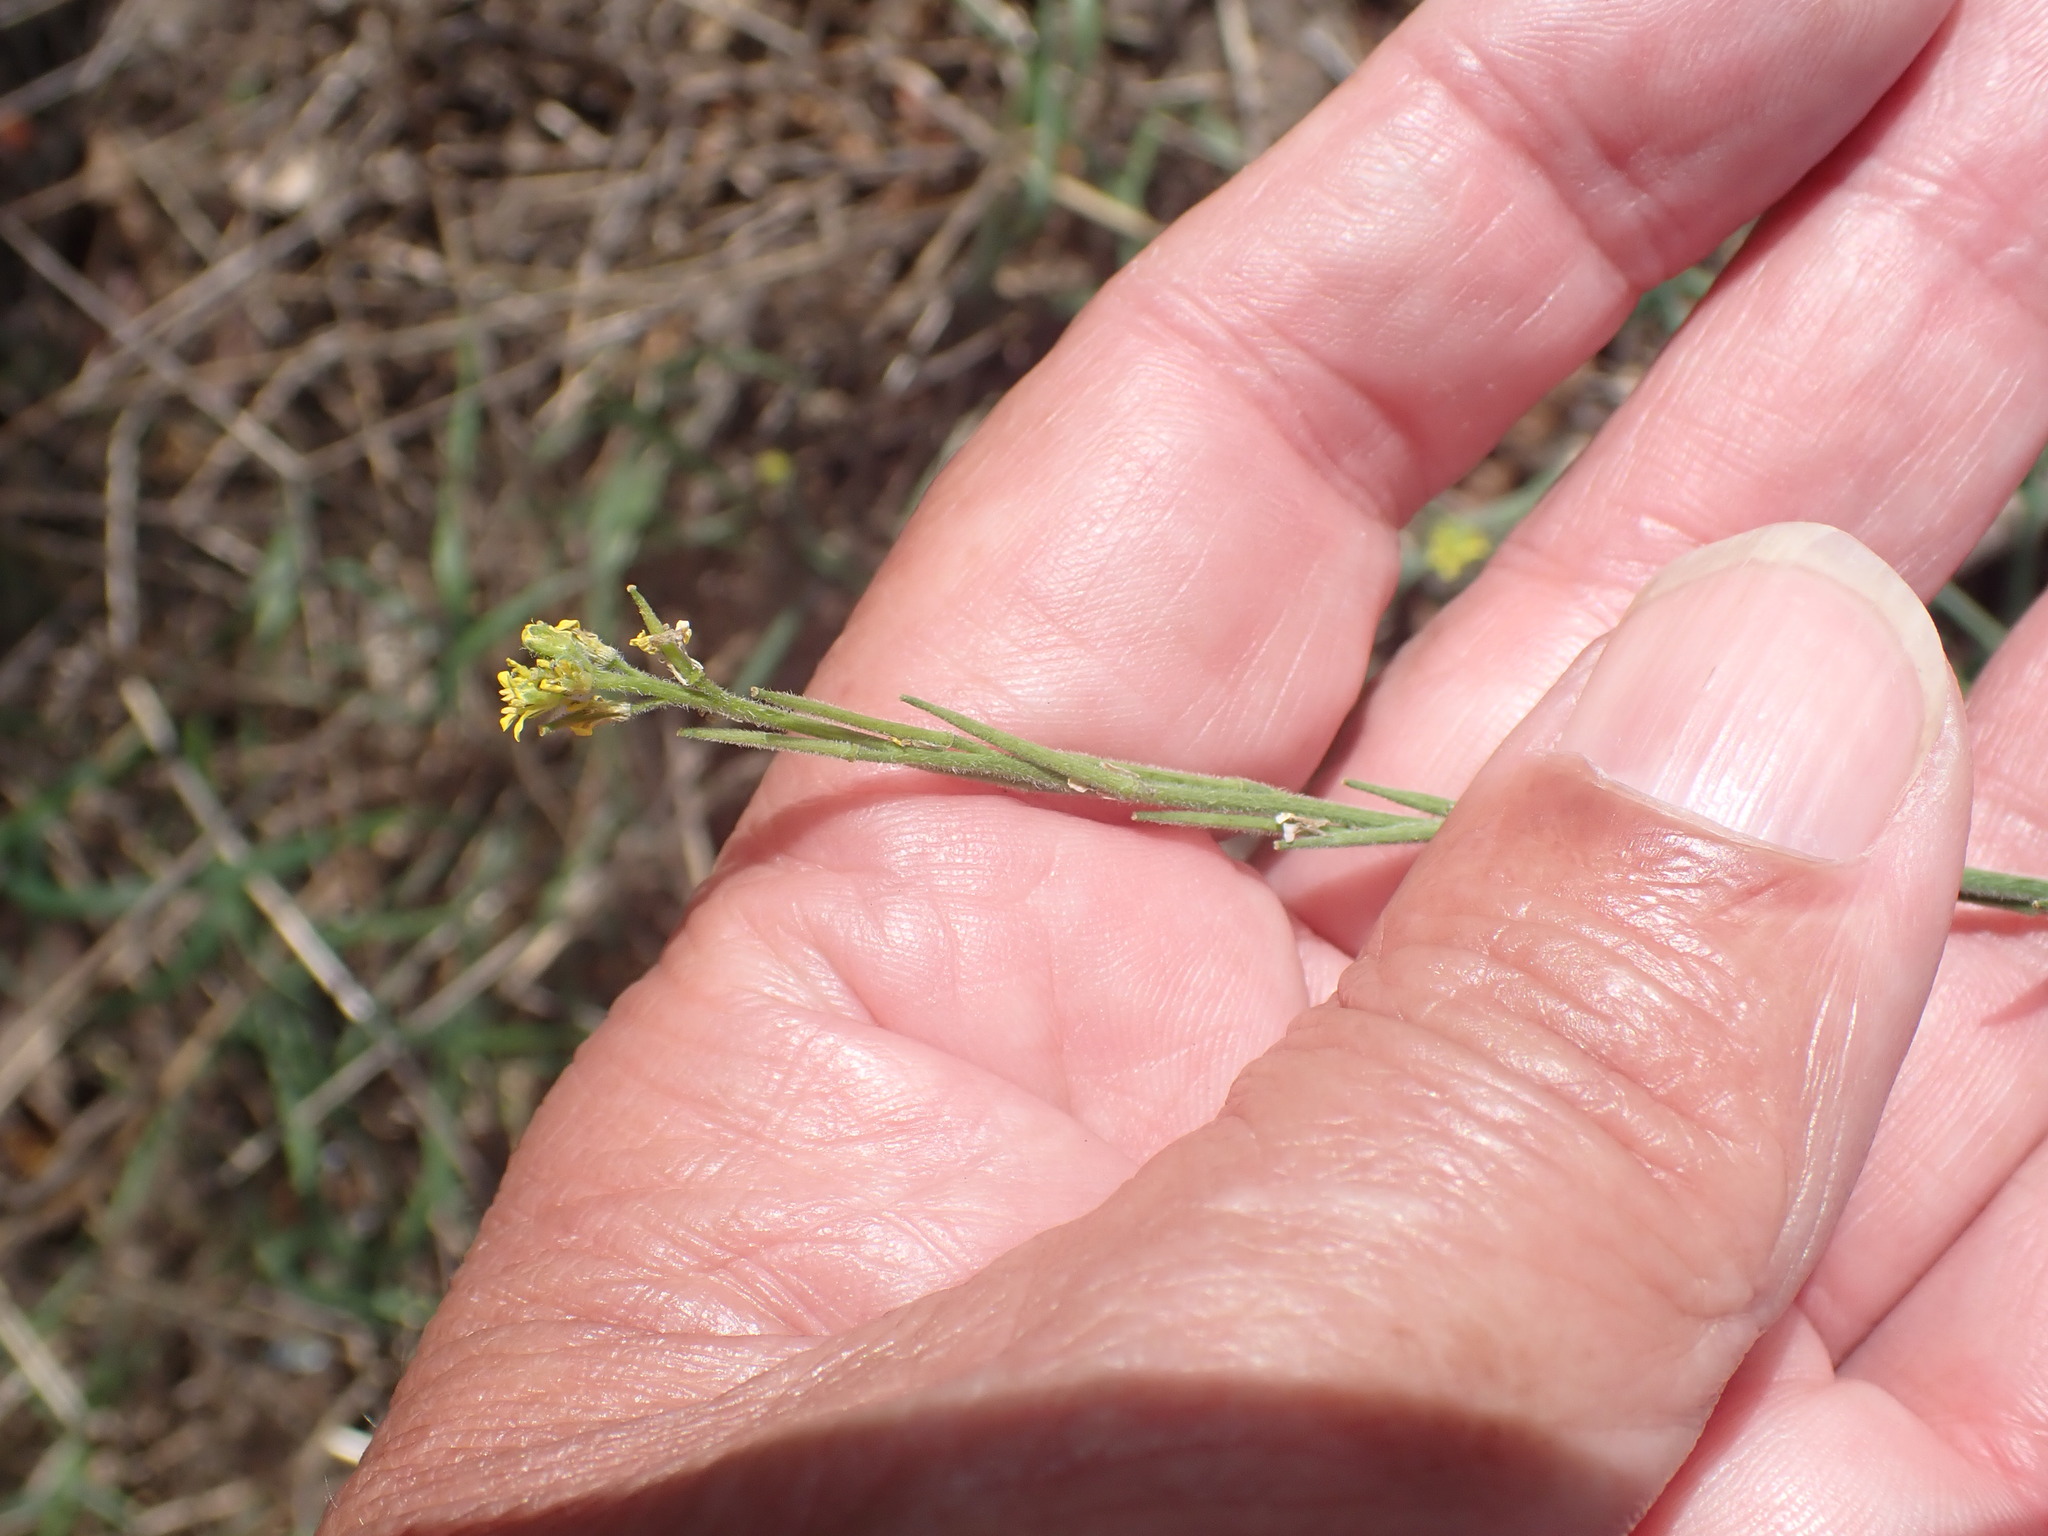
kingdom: Plantae
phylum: Tracheophyta
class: Magnoliopsida
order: Brassicales
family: Brassicaceae
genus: Sisymbrium
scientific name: Sisymbrium officinale
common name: Hedge mustard
